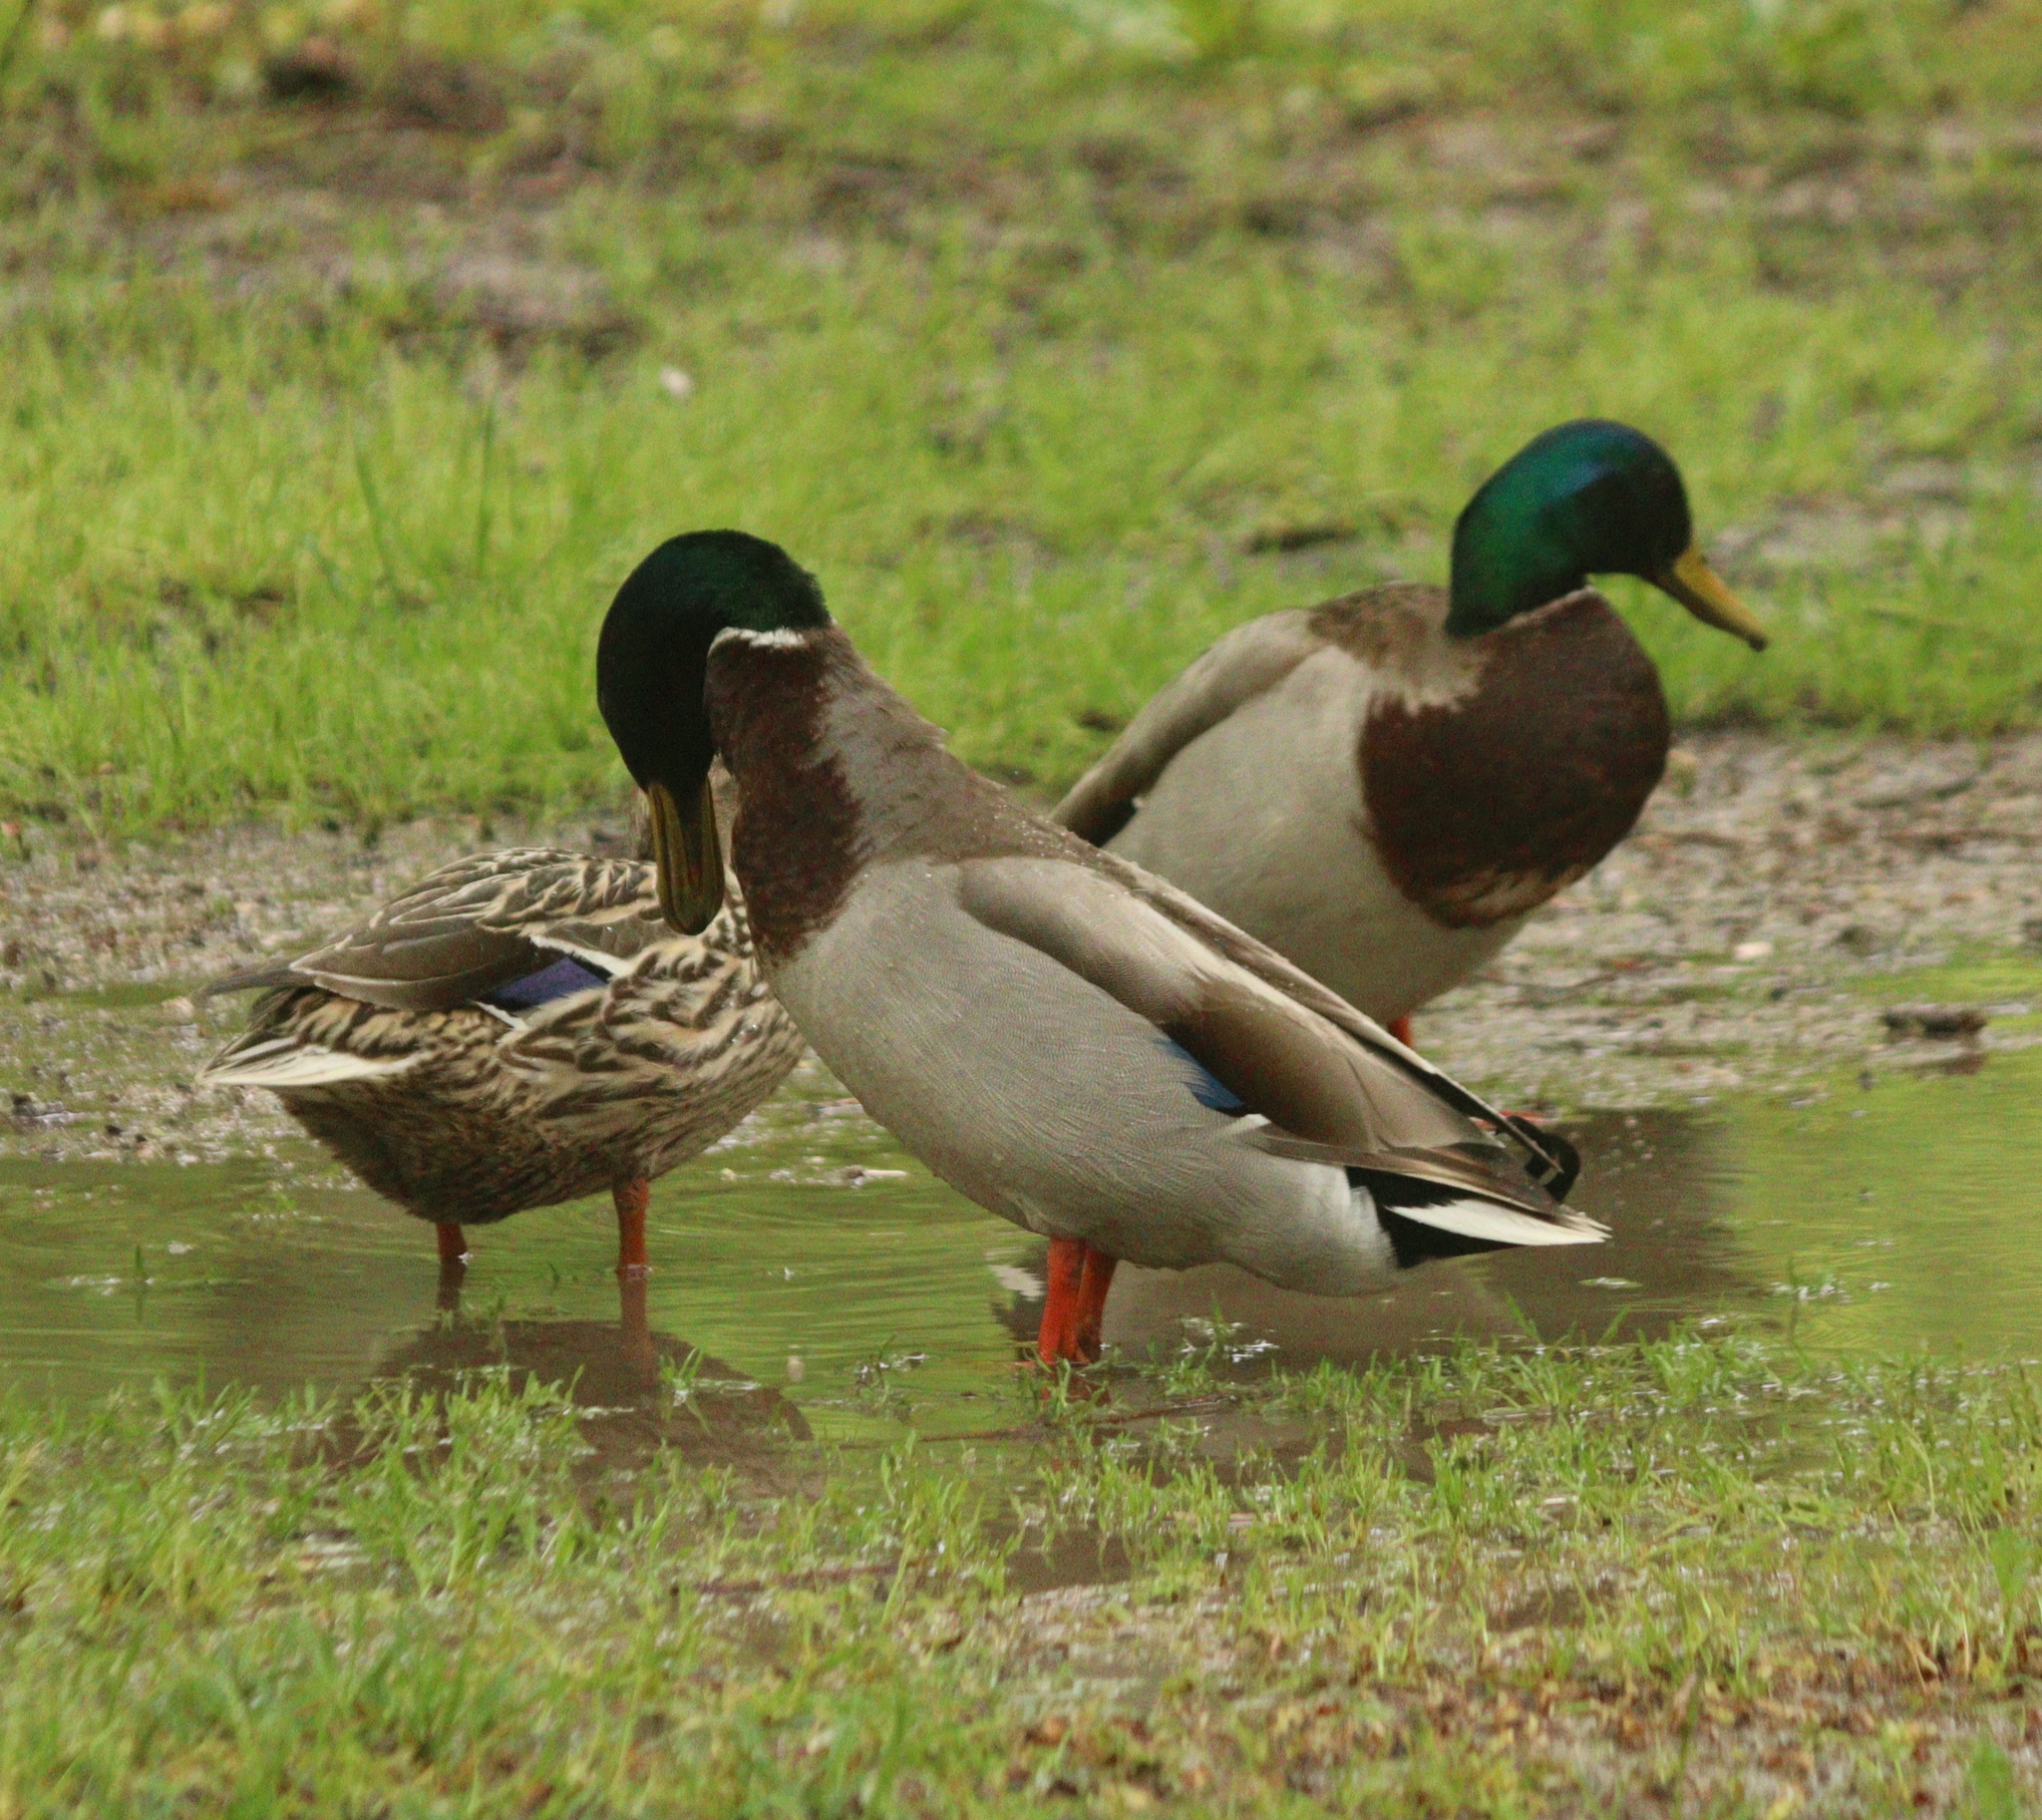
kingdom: Animalia
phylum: Chordata
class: Aves
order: Anseriformes
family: Anatidae
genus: Anas
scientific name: Anas platyrhynchos
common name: Mallard
